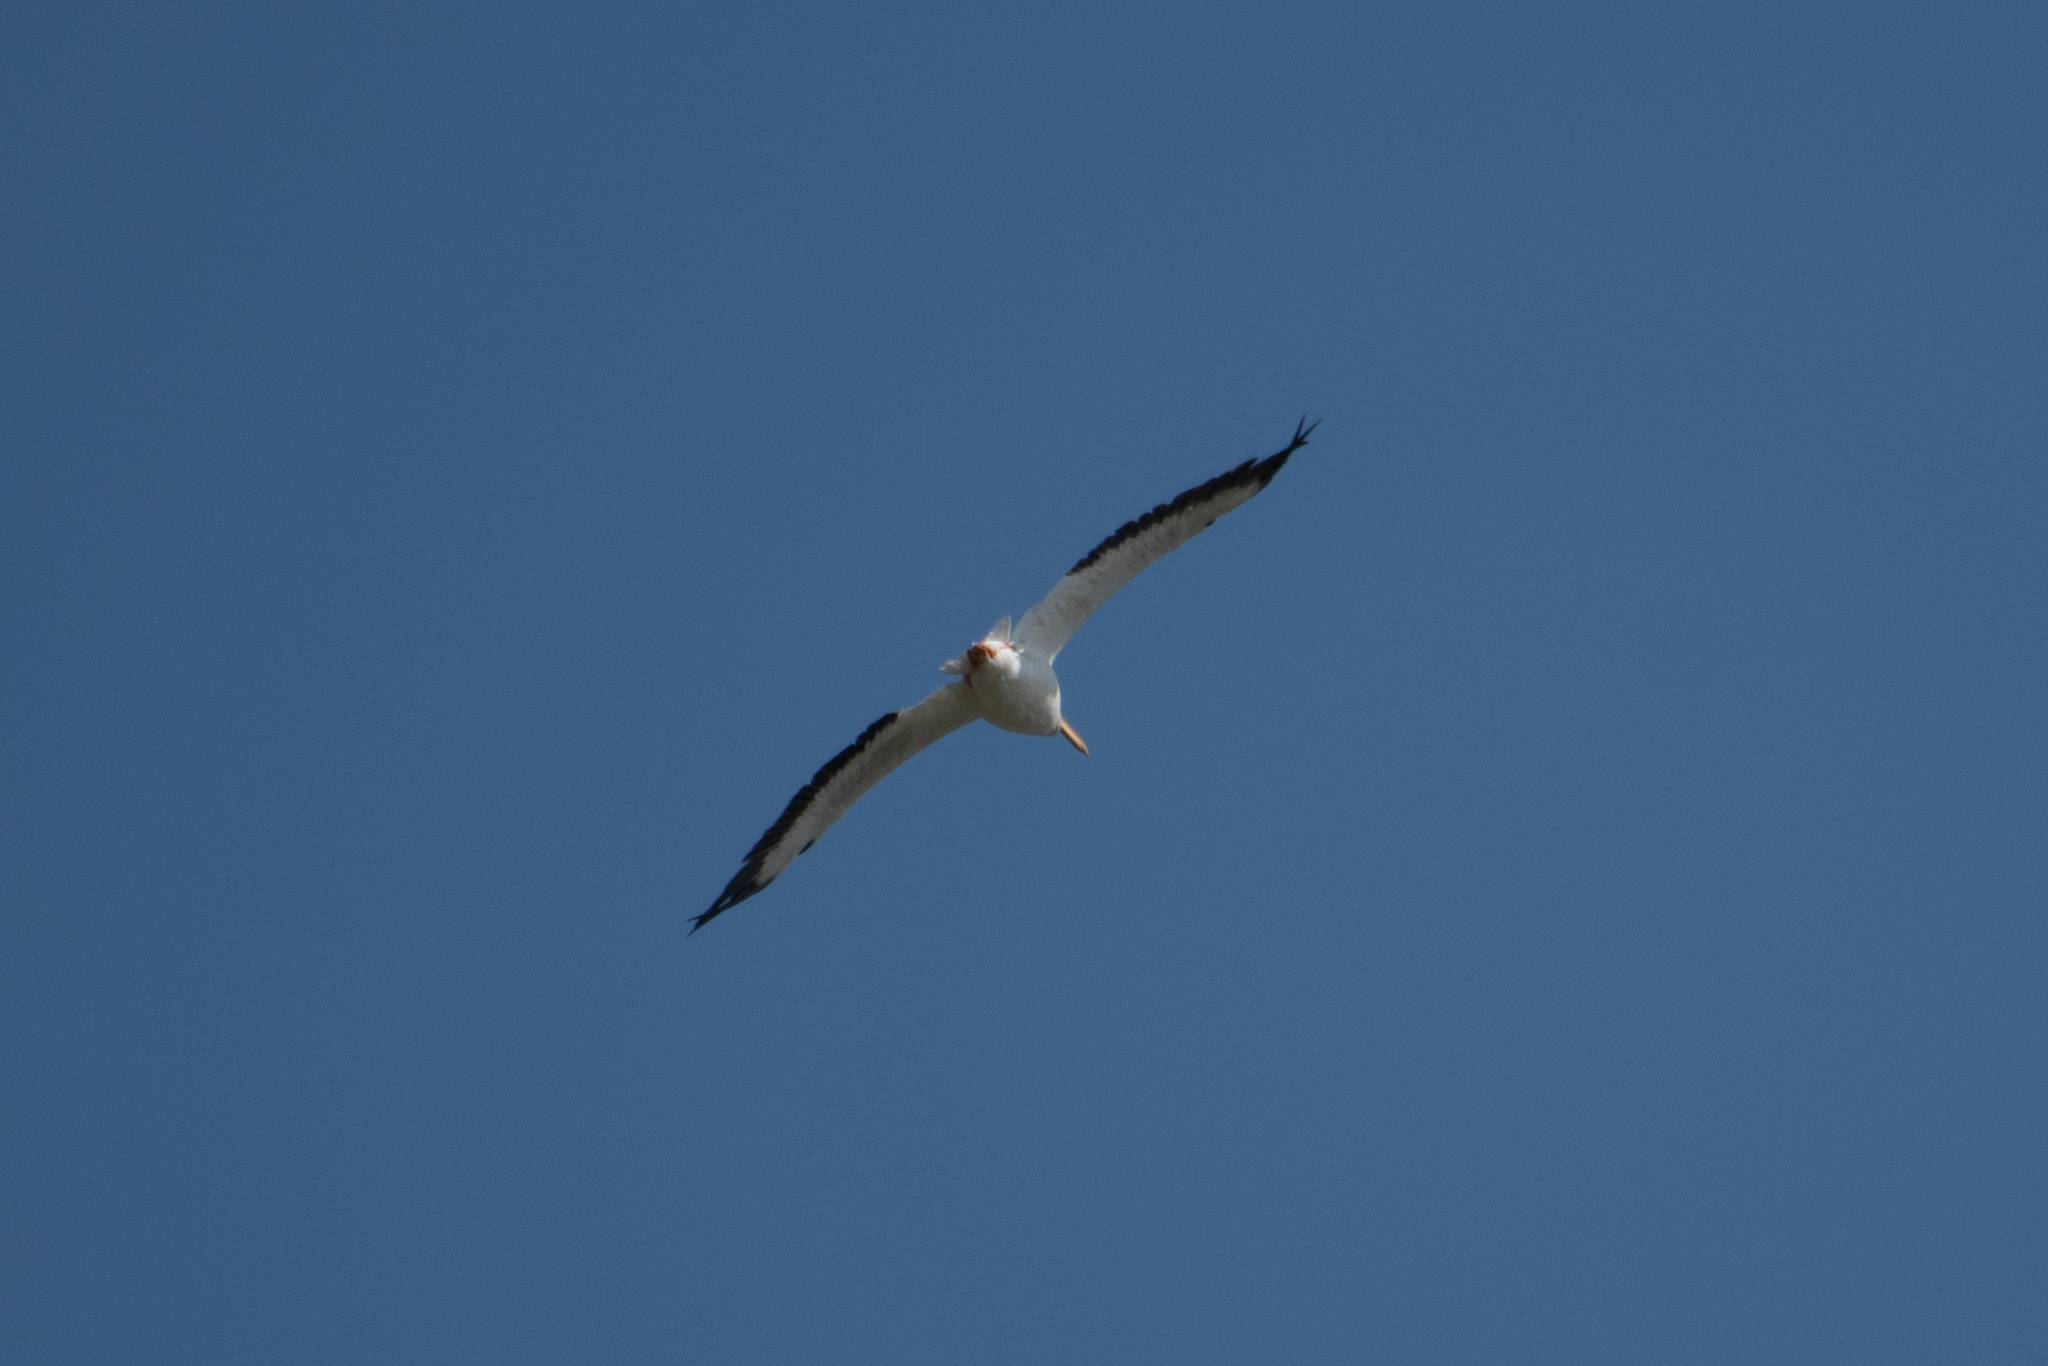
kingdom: Animalia
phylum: Chordata
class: Aves
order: Pelecaniformes
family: Pelecanidae
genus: Pelecanus
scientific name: Pelecanus erythrorhynchos
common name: American white pelican
